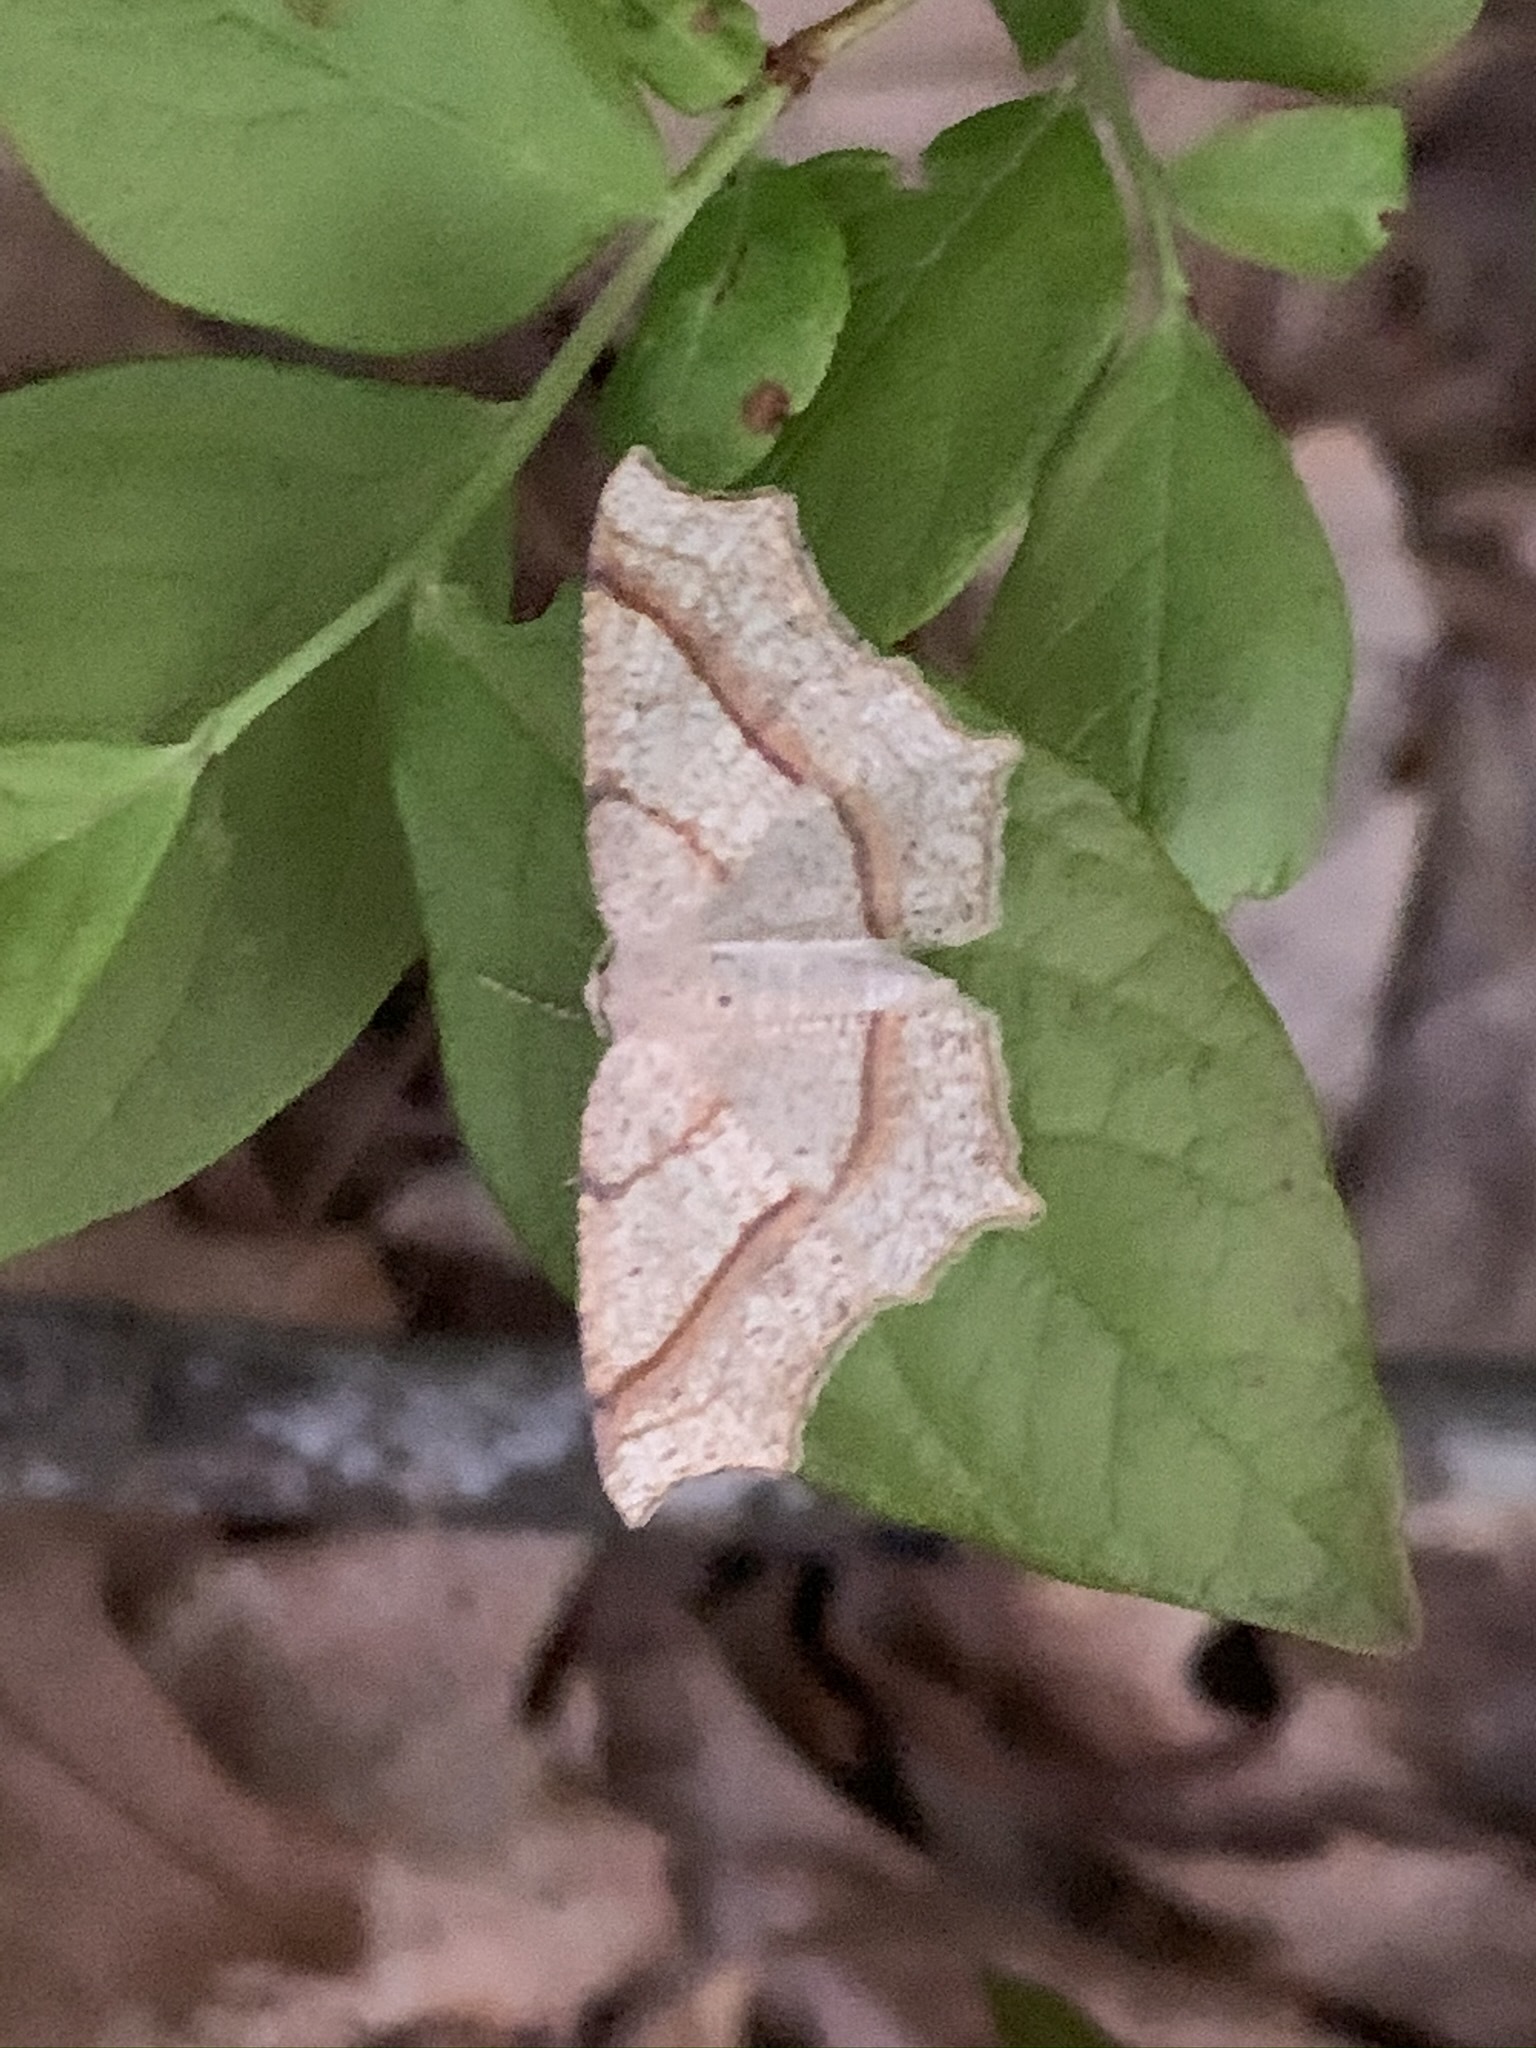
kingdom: Animalia
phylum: Arthropoda
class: Insecta
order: Lepidoptera
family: Geometridae
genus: Besma
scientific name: Besma quercivoraria
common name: Oak besma
